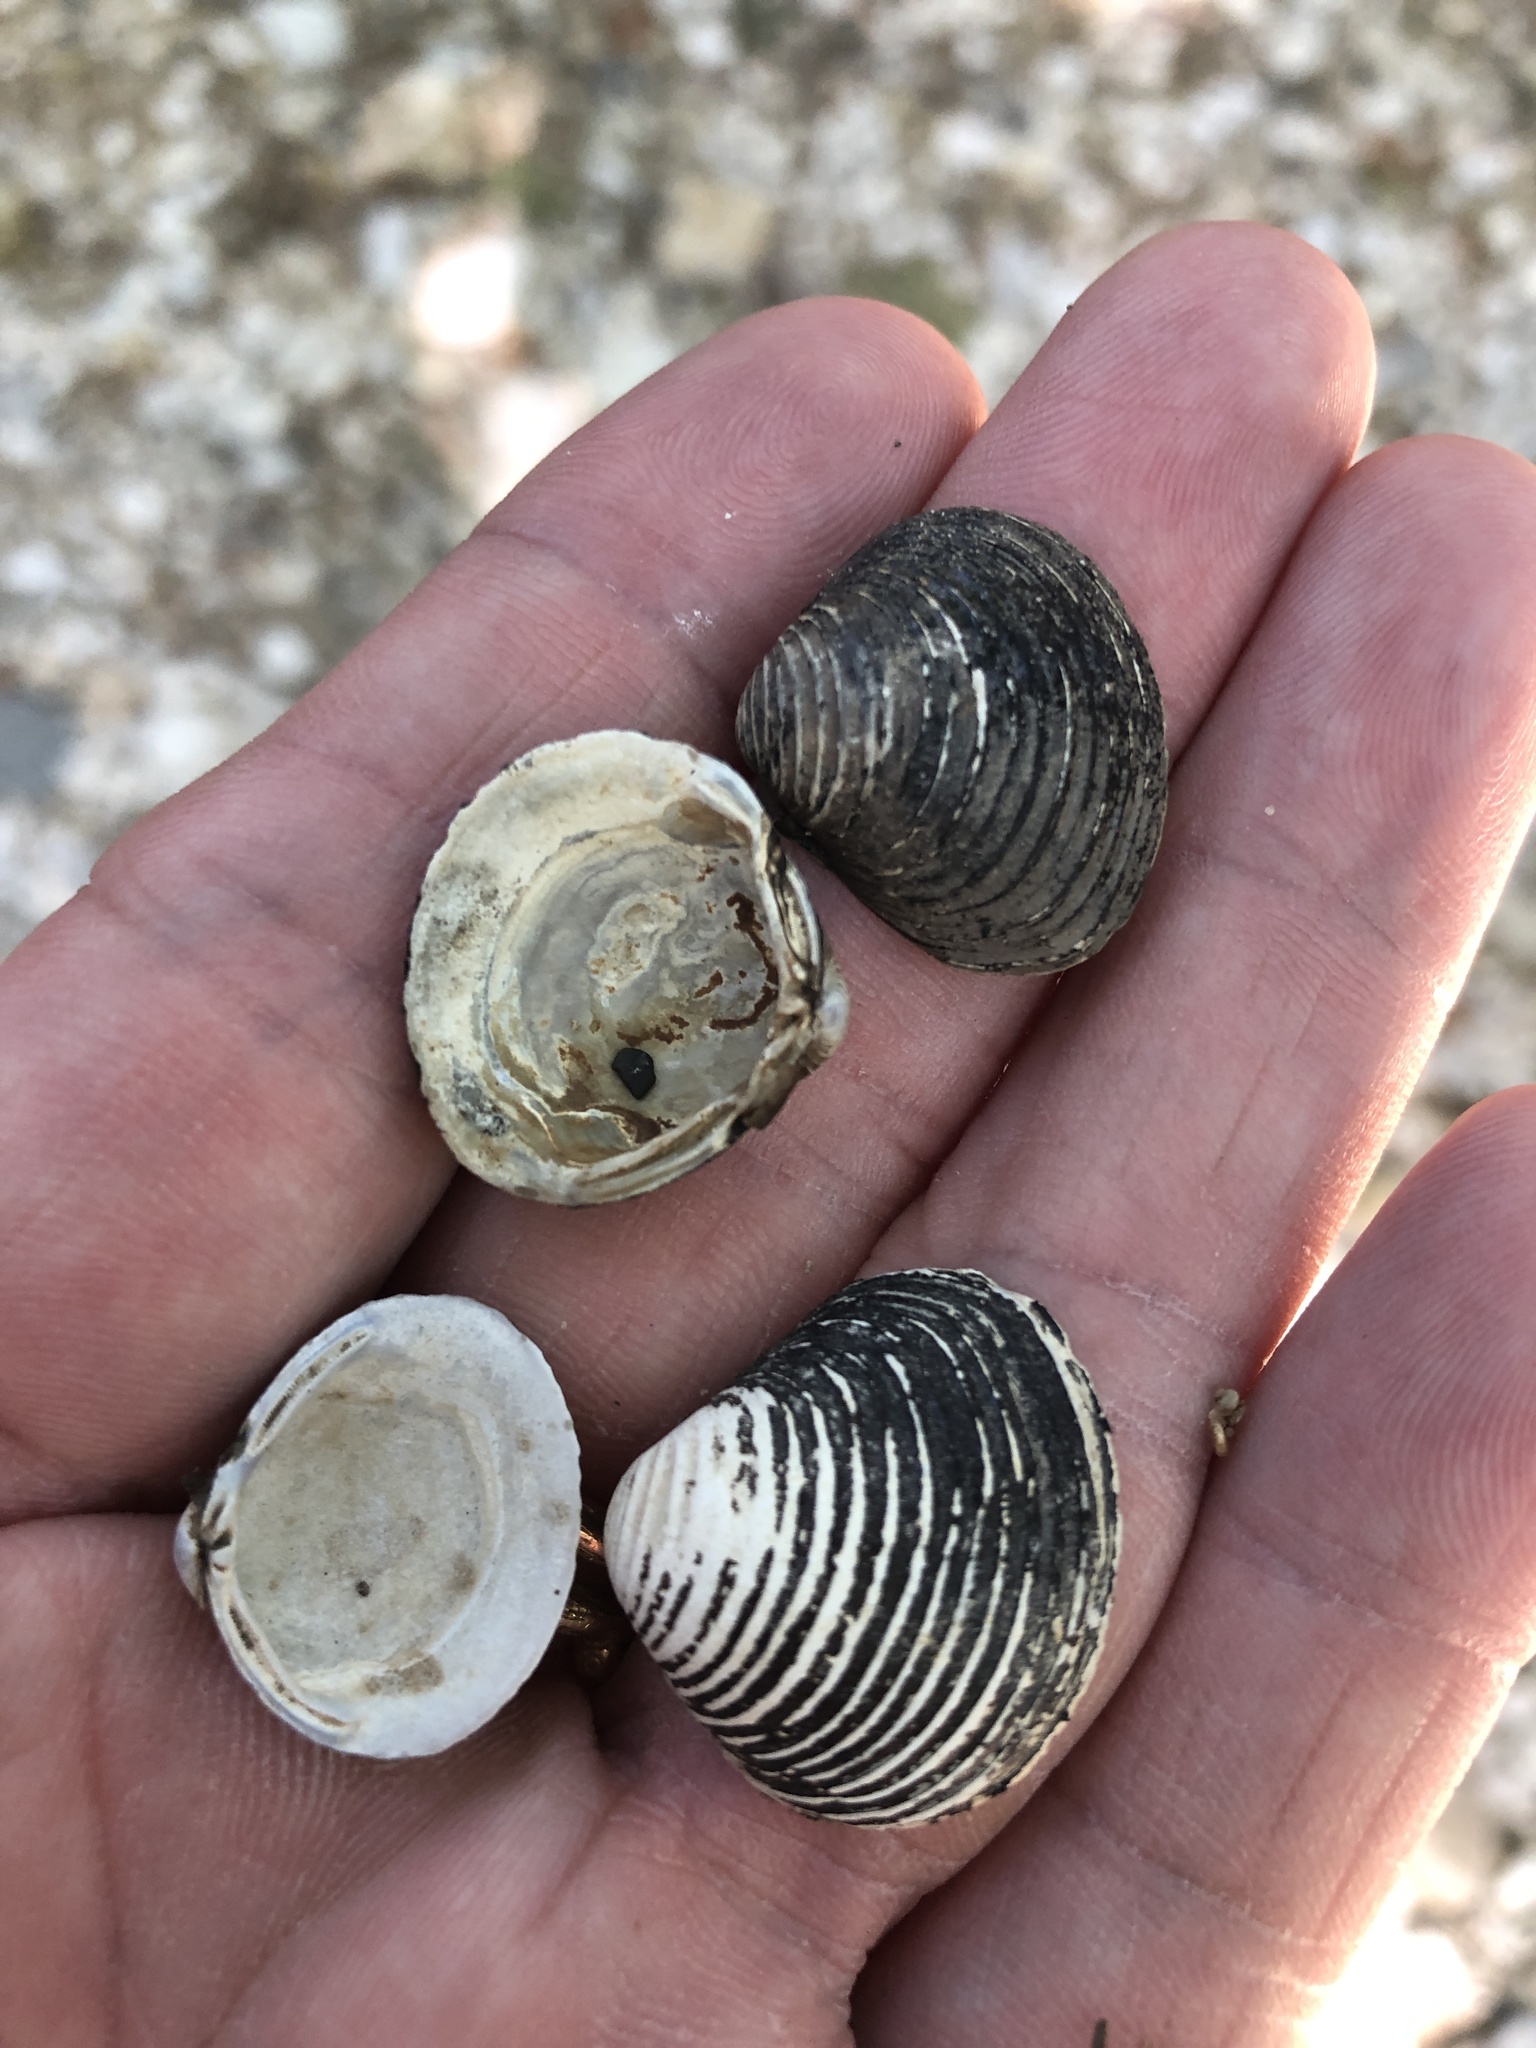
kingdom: Animalia
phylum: Mollusca
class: Bivalvia
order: Venerida
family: Cyrenidae
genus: Corbicula
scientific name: Corbicula fluminea
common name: Asian clam
